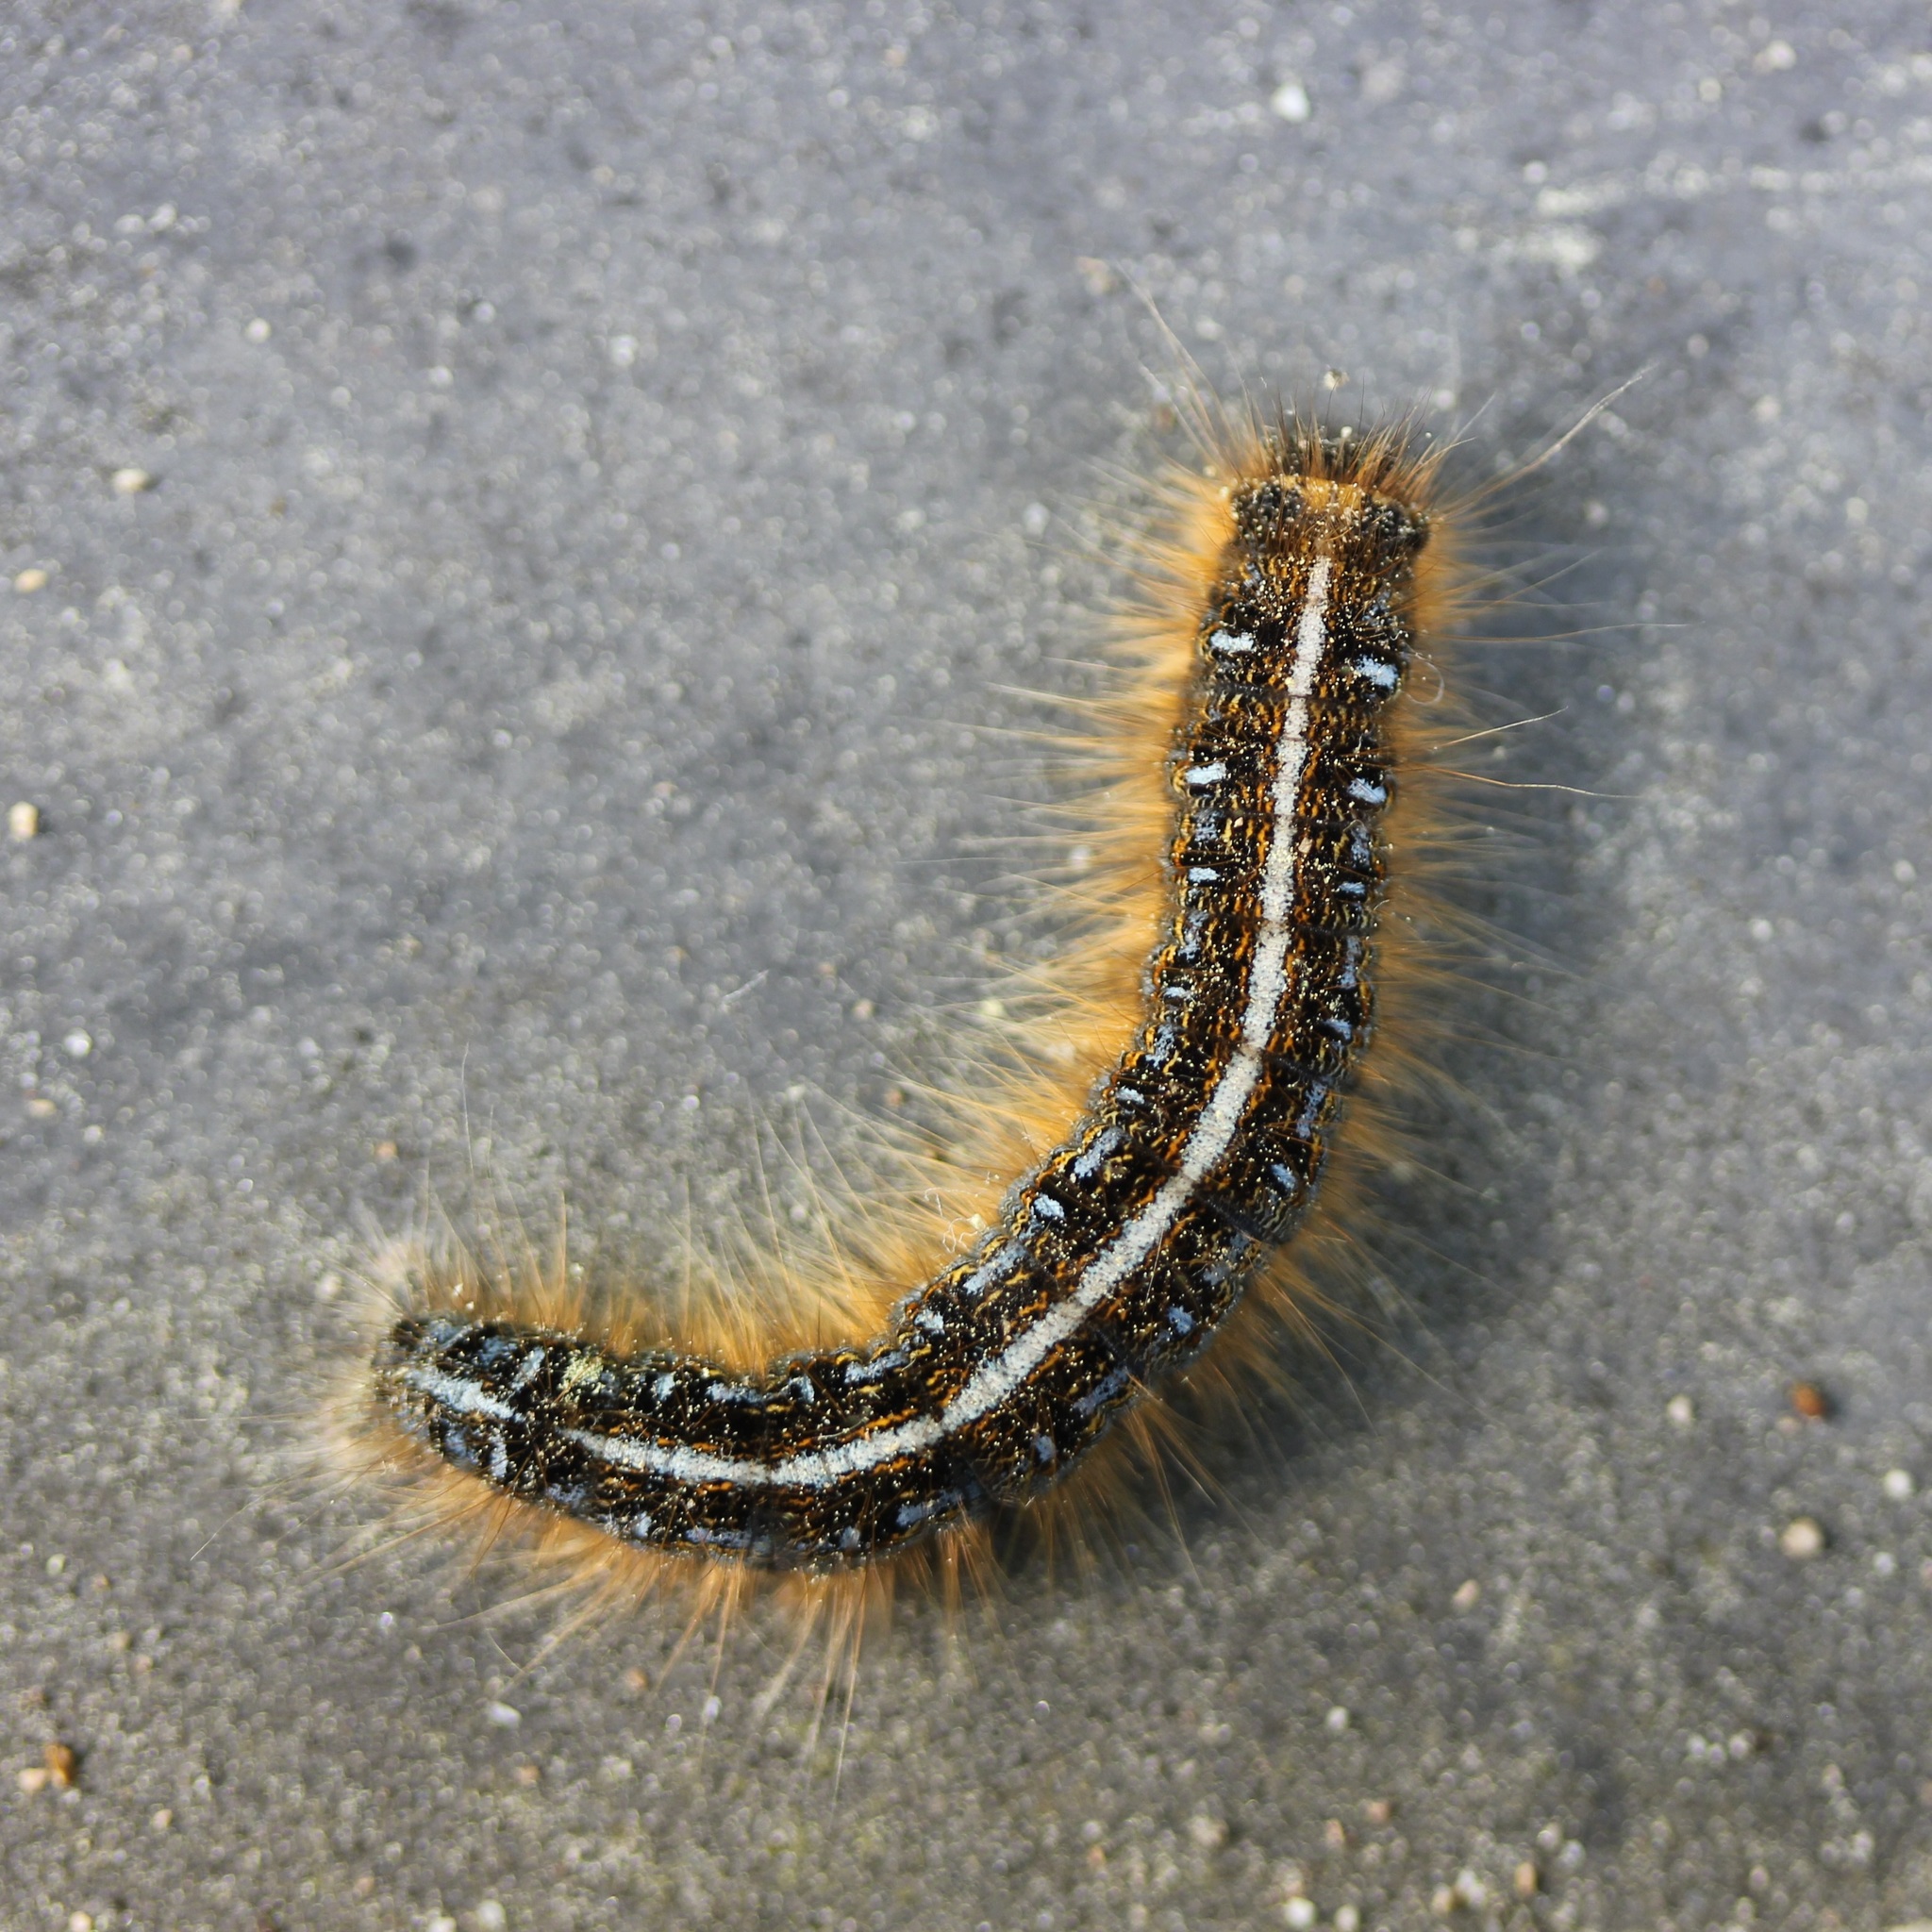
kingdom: Animalia
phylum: Arthropoda
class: Insecta
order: Lepidoptera
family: Lasiocampidae
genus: Malacosoma
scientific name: Malacosoma americana
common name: Eastern tent caterpillar moth
